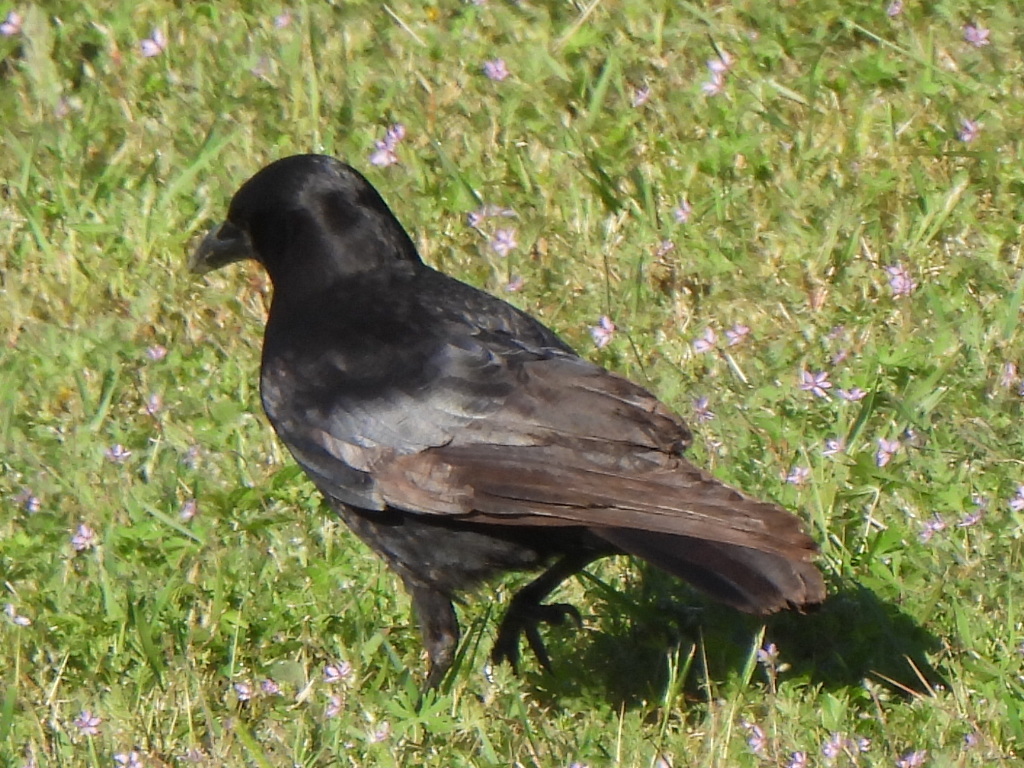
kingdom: Animalia
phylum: Chordata
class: Aves
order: Passeriformes
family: Corvidae
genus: Corvus
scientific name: Corvus brachyrhynchos
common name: American crow
